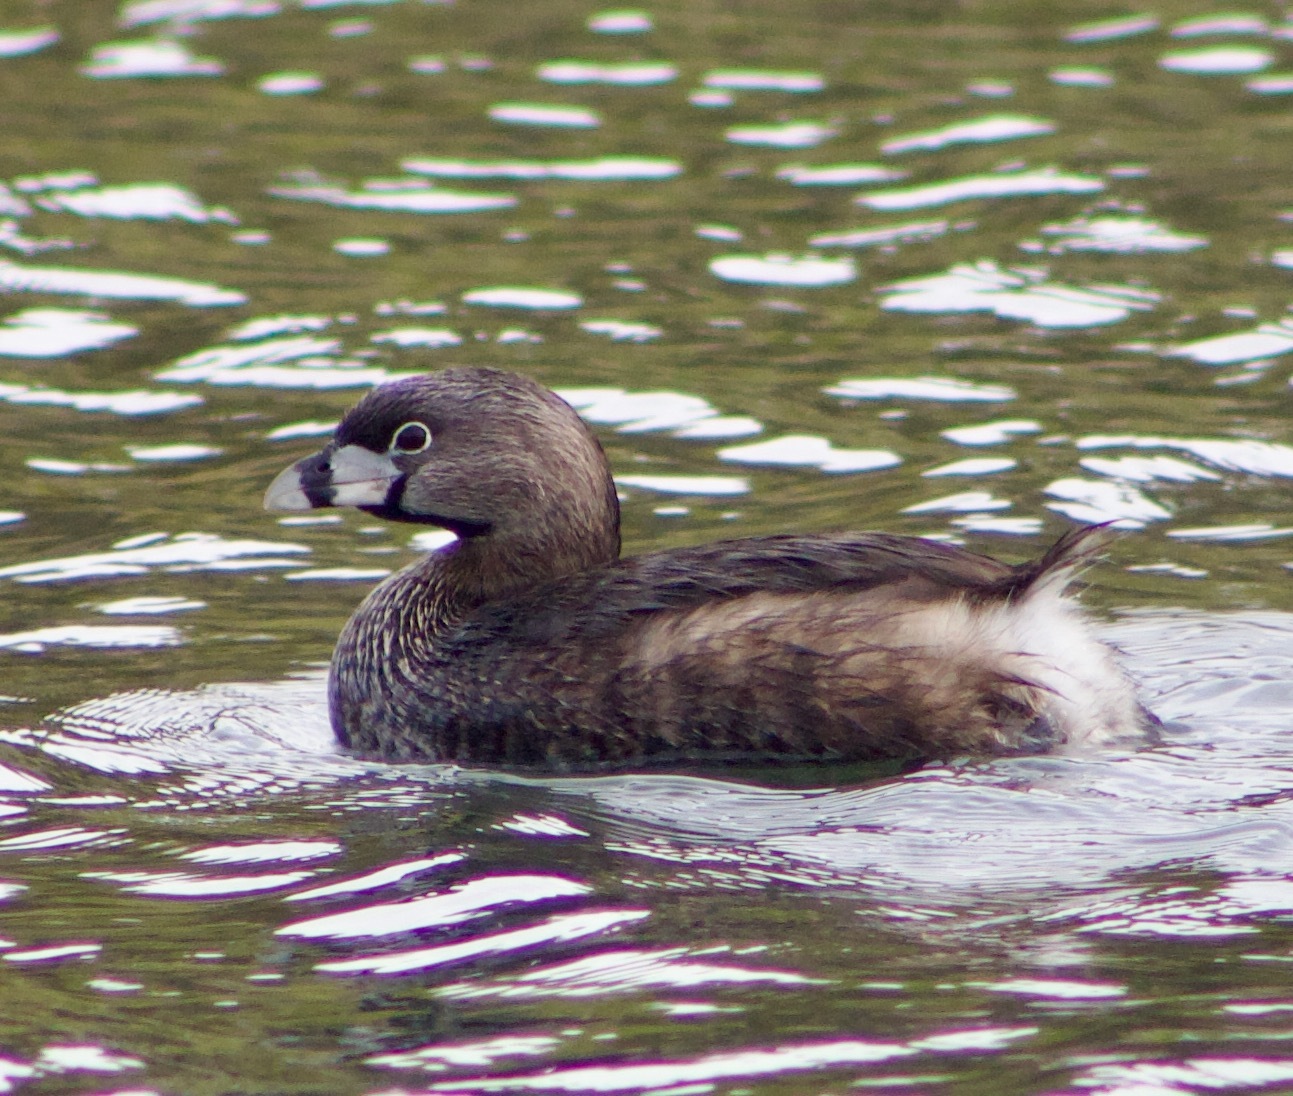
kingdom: Animalia
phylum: Chordata
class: Aves
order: Podicipediformes
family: Podicipedidae
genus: Podilymbus
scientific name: Podilymbus podiceps
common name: Pied-billed grebe
